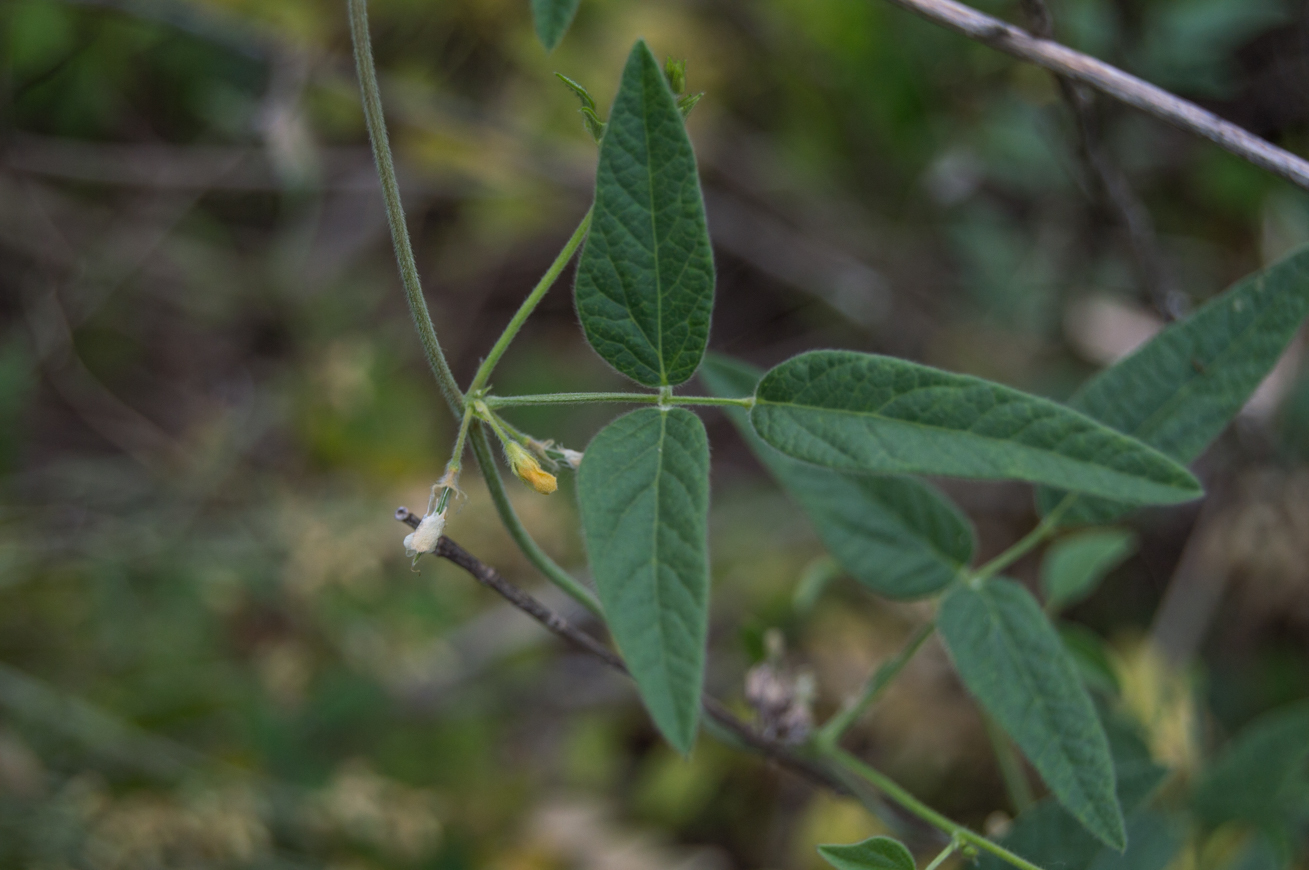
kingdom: Plantae
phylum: Tracheophyta
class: Magnoliopsida
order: Fabales
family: Fabaceae
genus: Rhynchosia
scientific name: Rhynchosia senna
